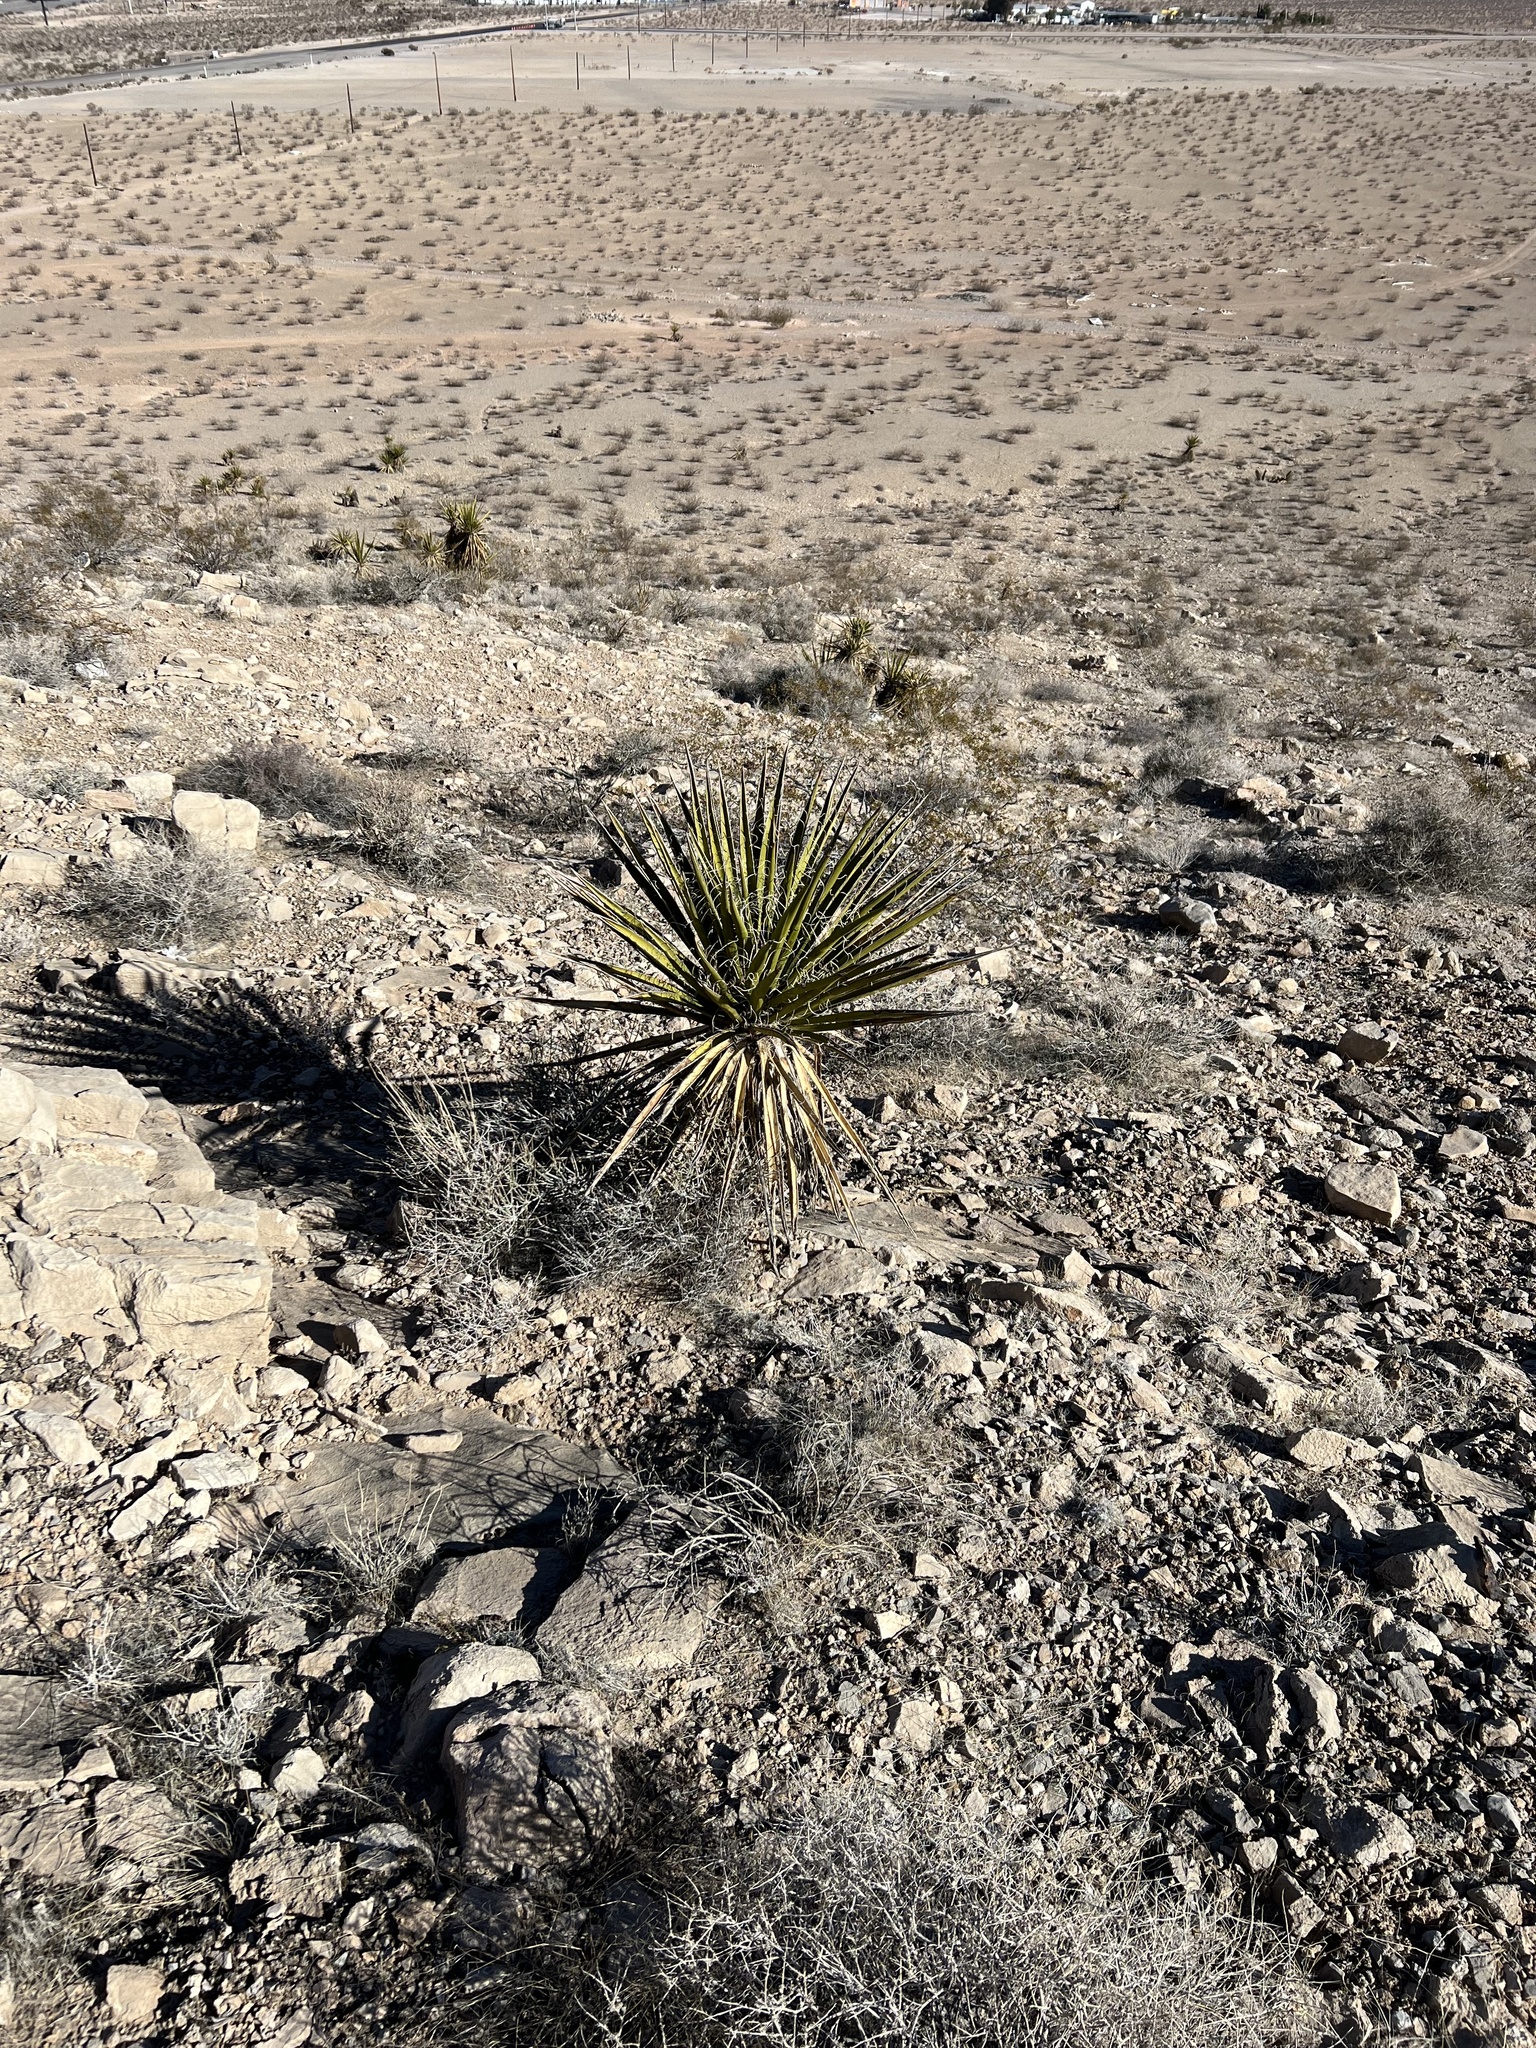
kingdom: Plantae
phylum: Tracheophyta
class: Liliopsida
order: Asparagales
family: Asparagaceae
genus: Yucca
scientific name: Yucca schidigera
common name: Mojave yucca
